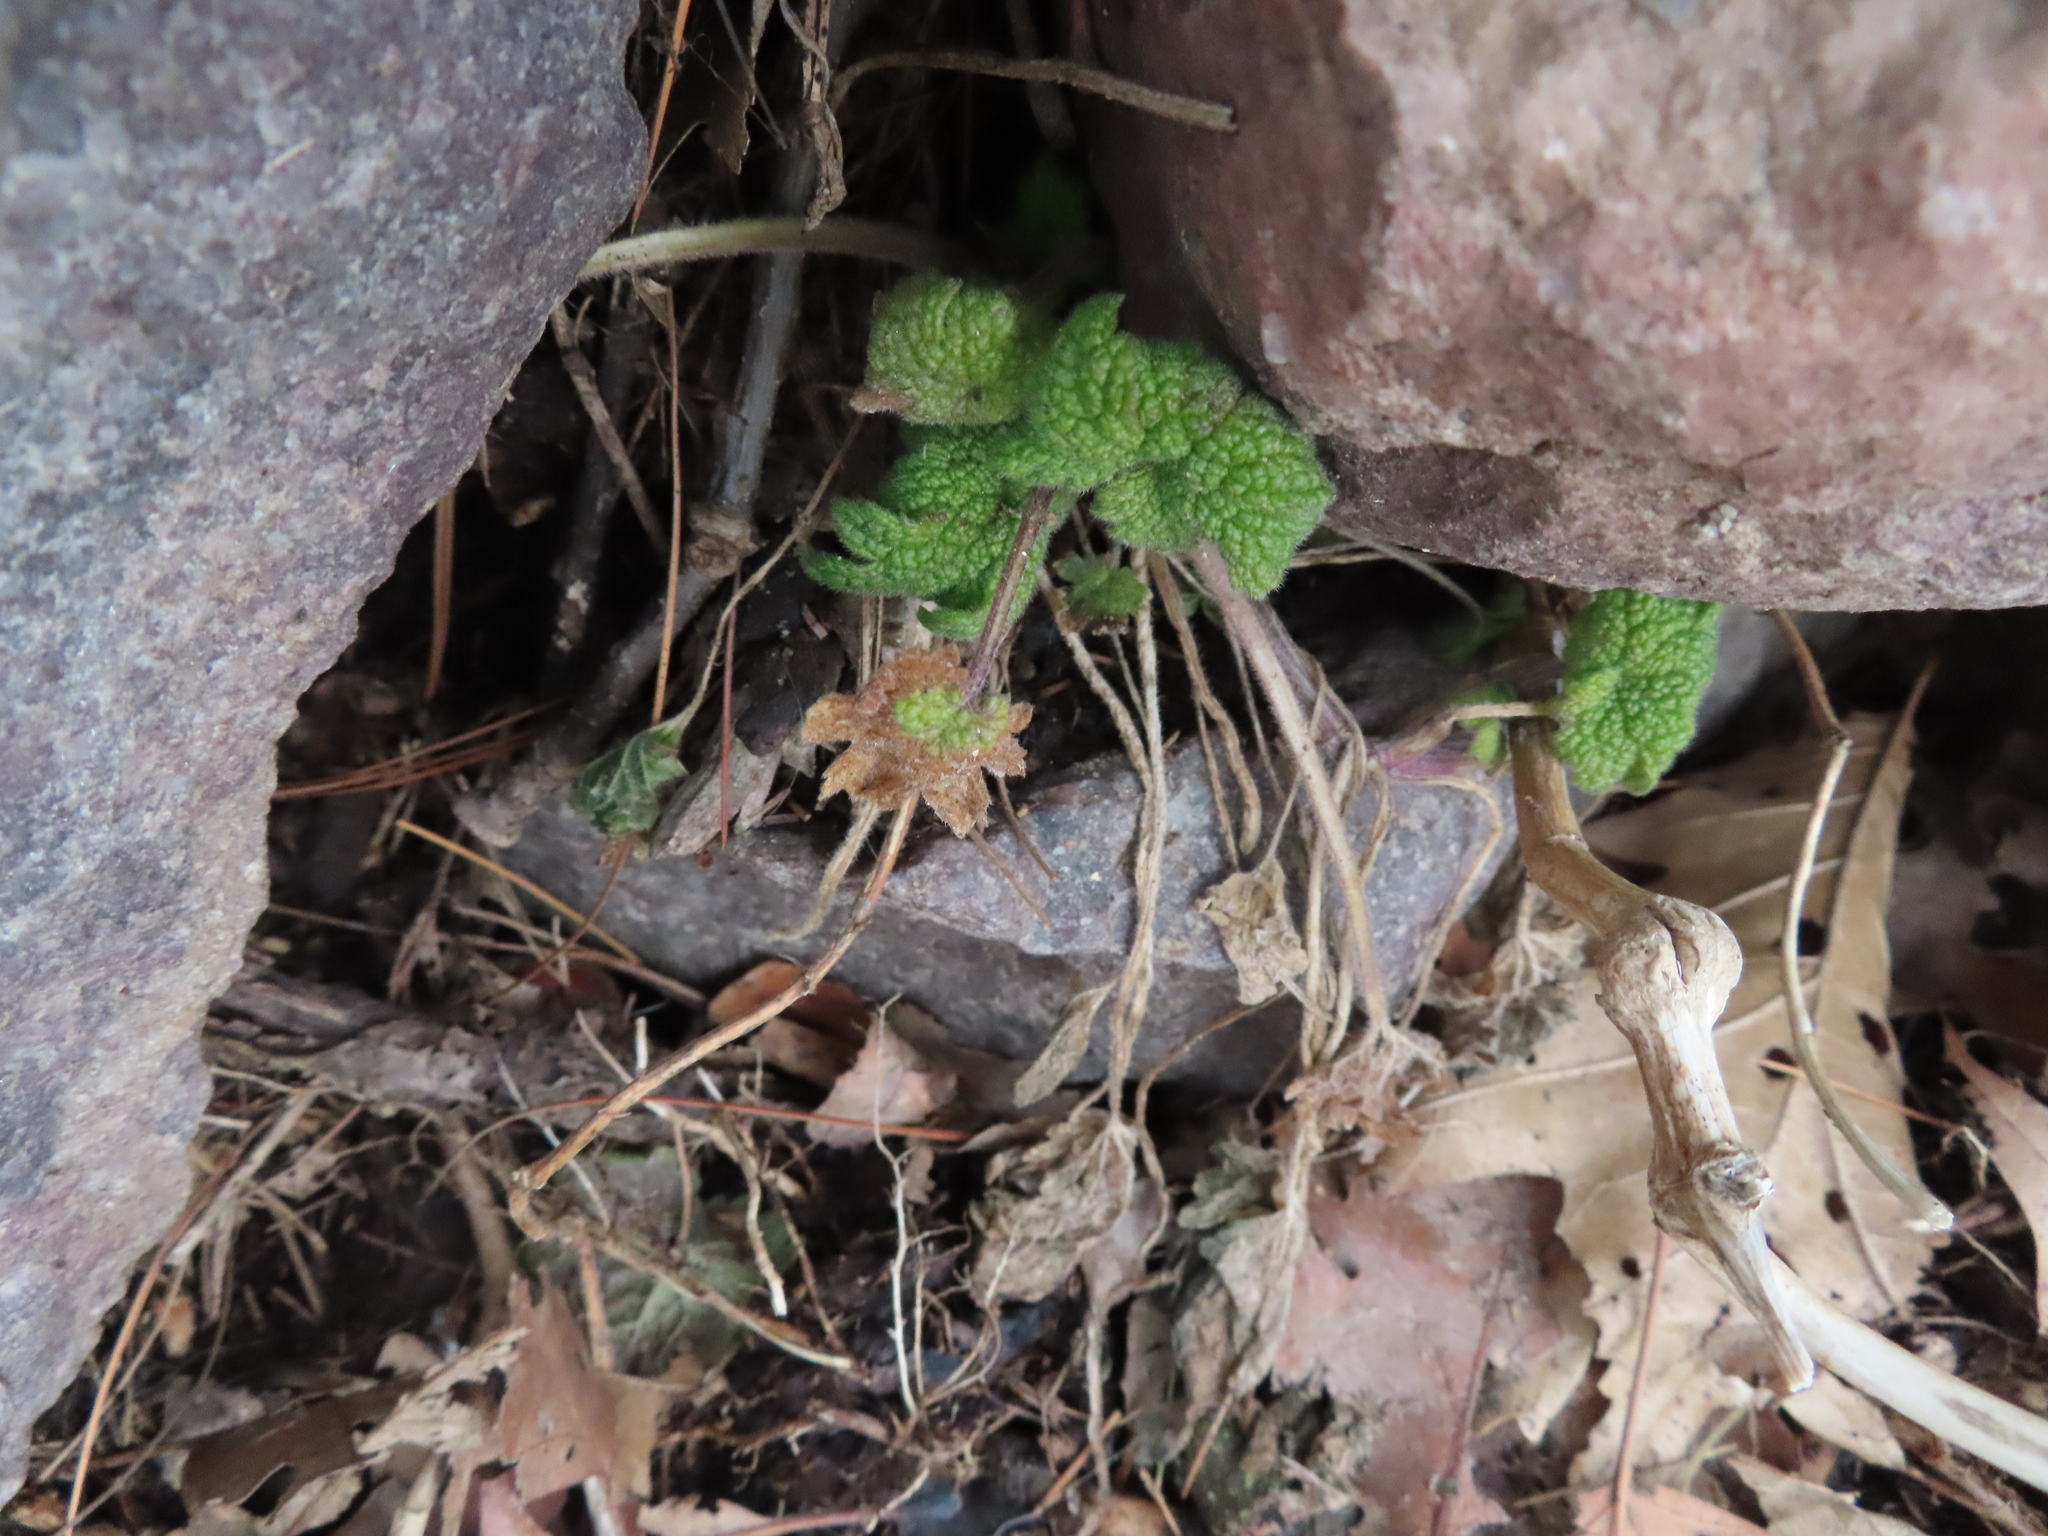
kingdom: Plantae
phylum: Tracheophyta
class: Magnoliopsida
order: Lamiales
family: Lamiaceae
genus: Leonurus
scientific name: Leonurus cardiaca
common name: Motherwort
